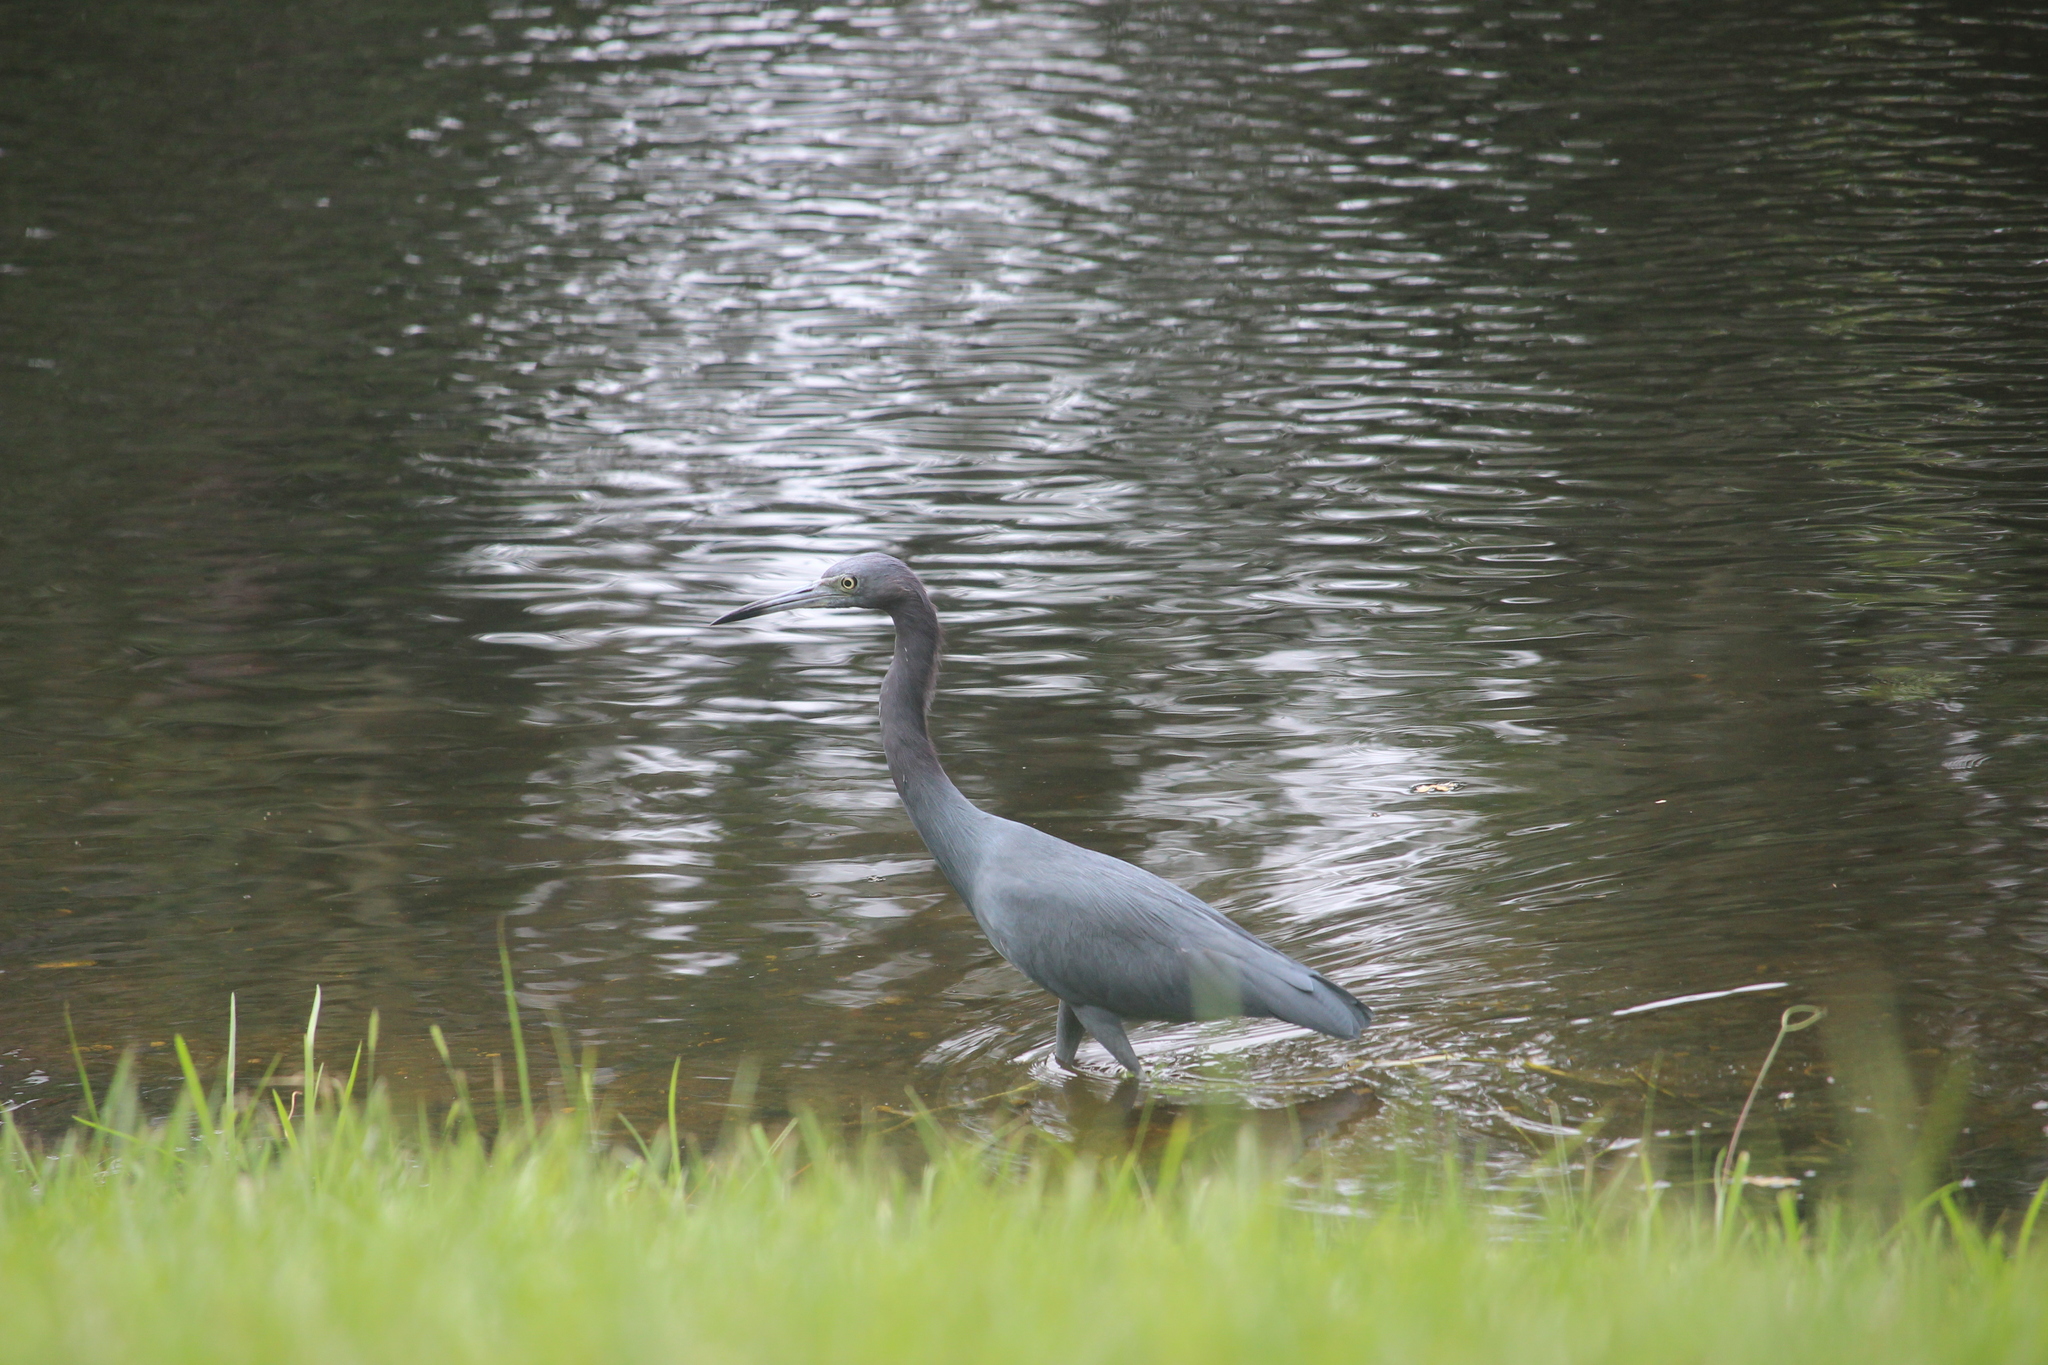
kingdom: Animalia
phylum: Chordata
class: Aves
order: Pelecaniformes
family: Ardeidae
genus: Egretta
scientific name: Egretta caerulea
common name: Little blue heron
